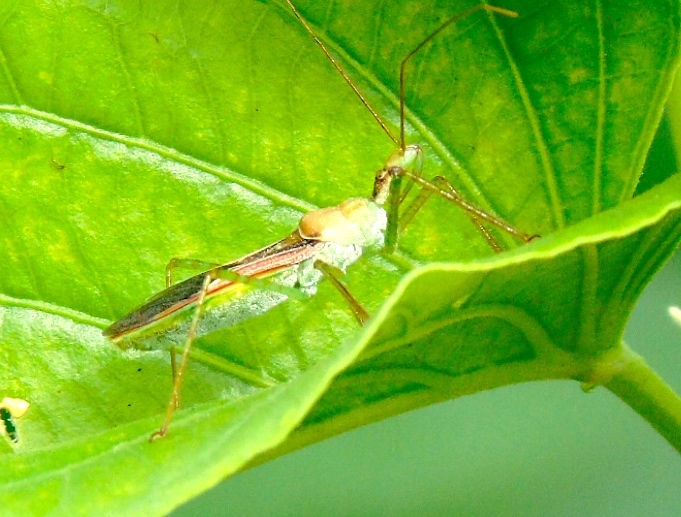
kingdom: Animalia
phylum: Arthropoda
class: Insecta
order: Hemiptera
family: Reduviidae
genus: Zelus
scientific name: Zelus
